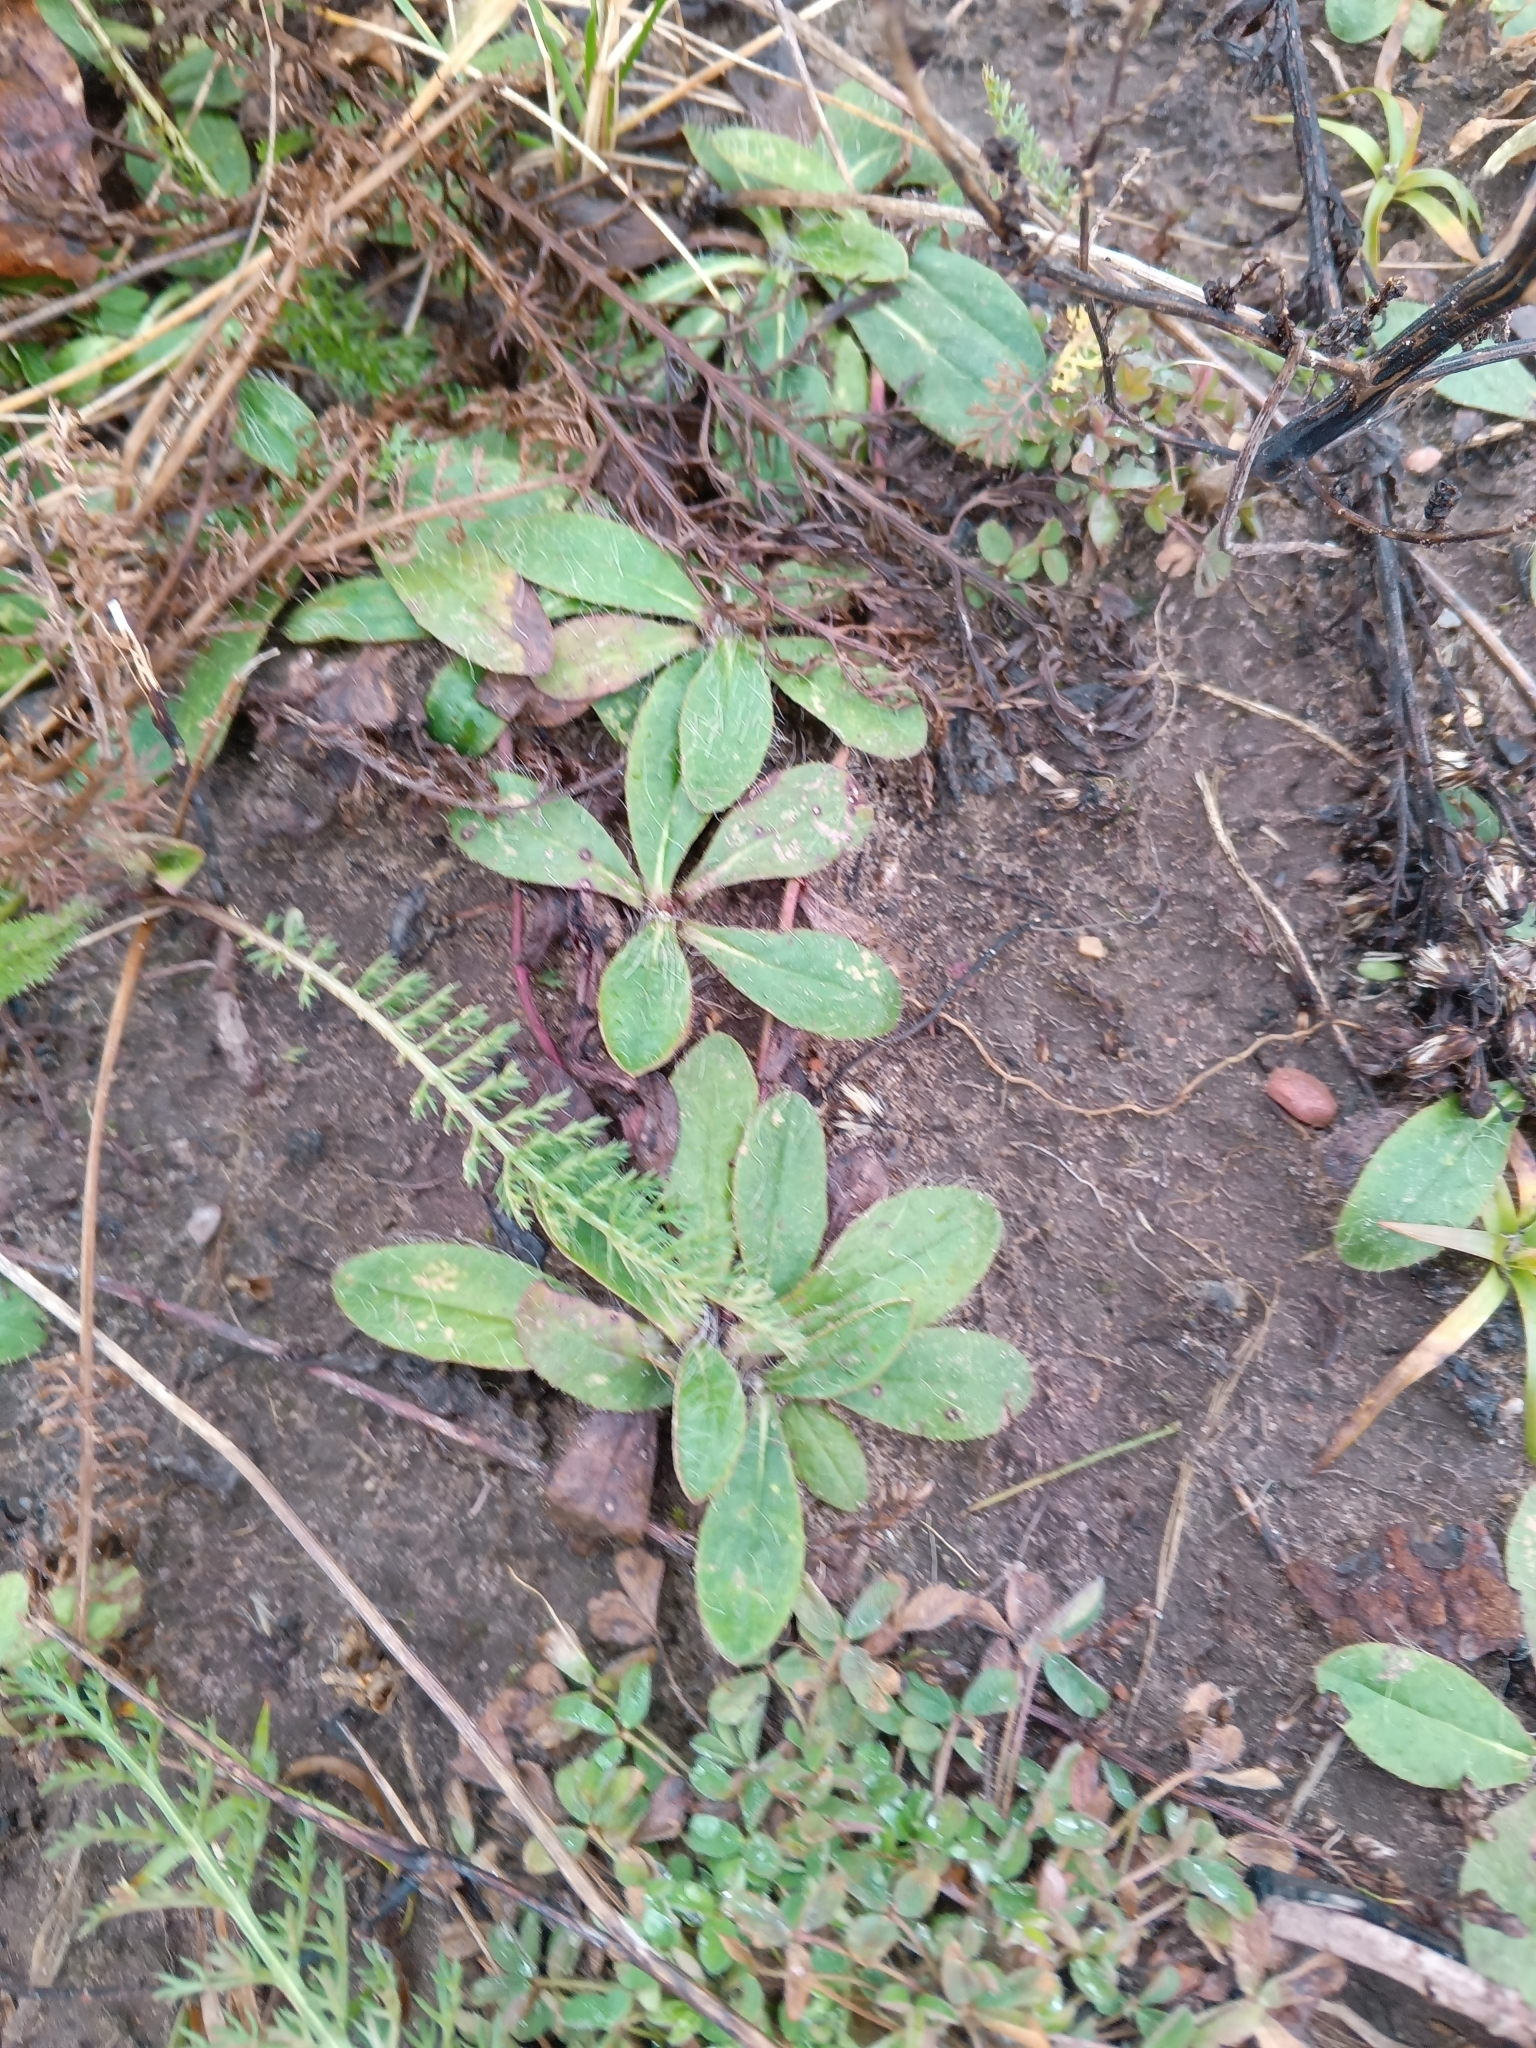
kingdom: Plantae
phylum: Tracheophyta
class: Magnoliopsida
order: Asterales
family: Asteraceae
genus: Pilosella
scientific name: Pilosella officinarum
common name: Mouse-ear hawkweed
